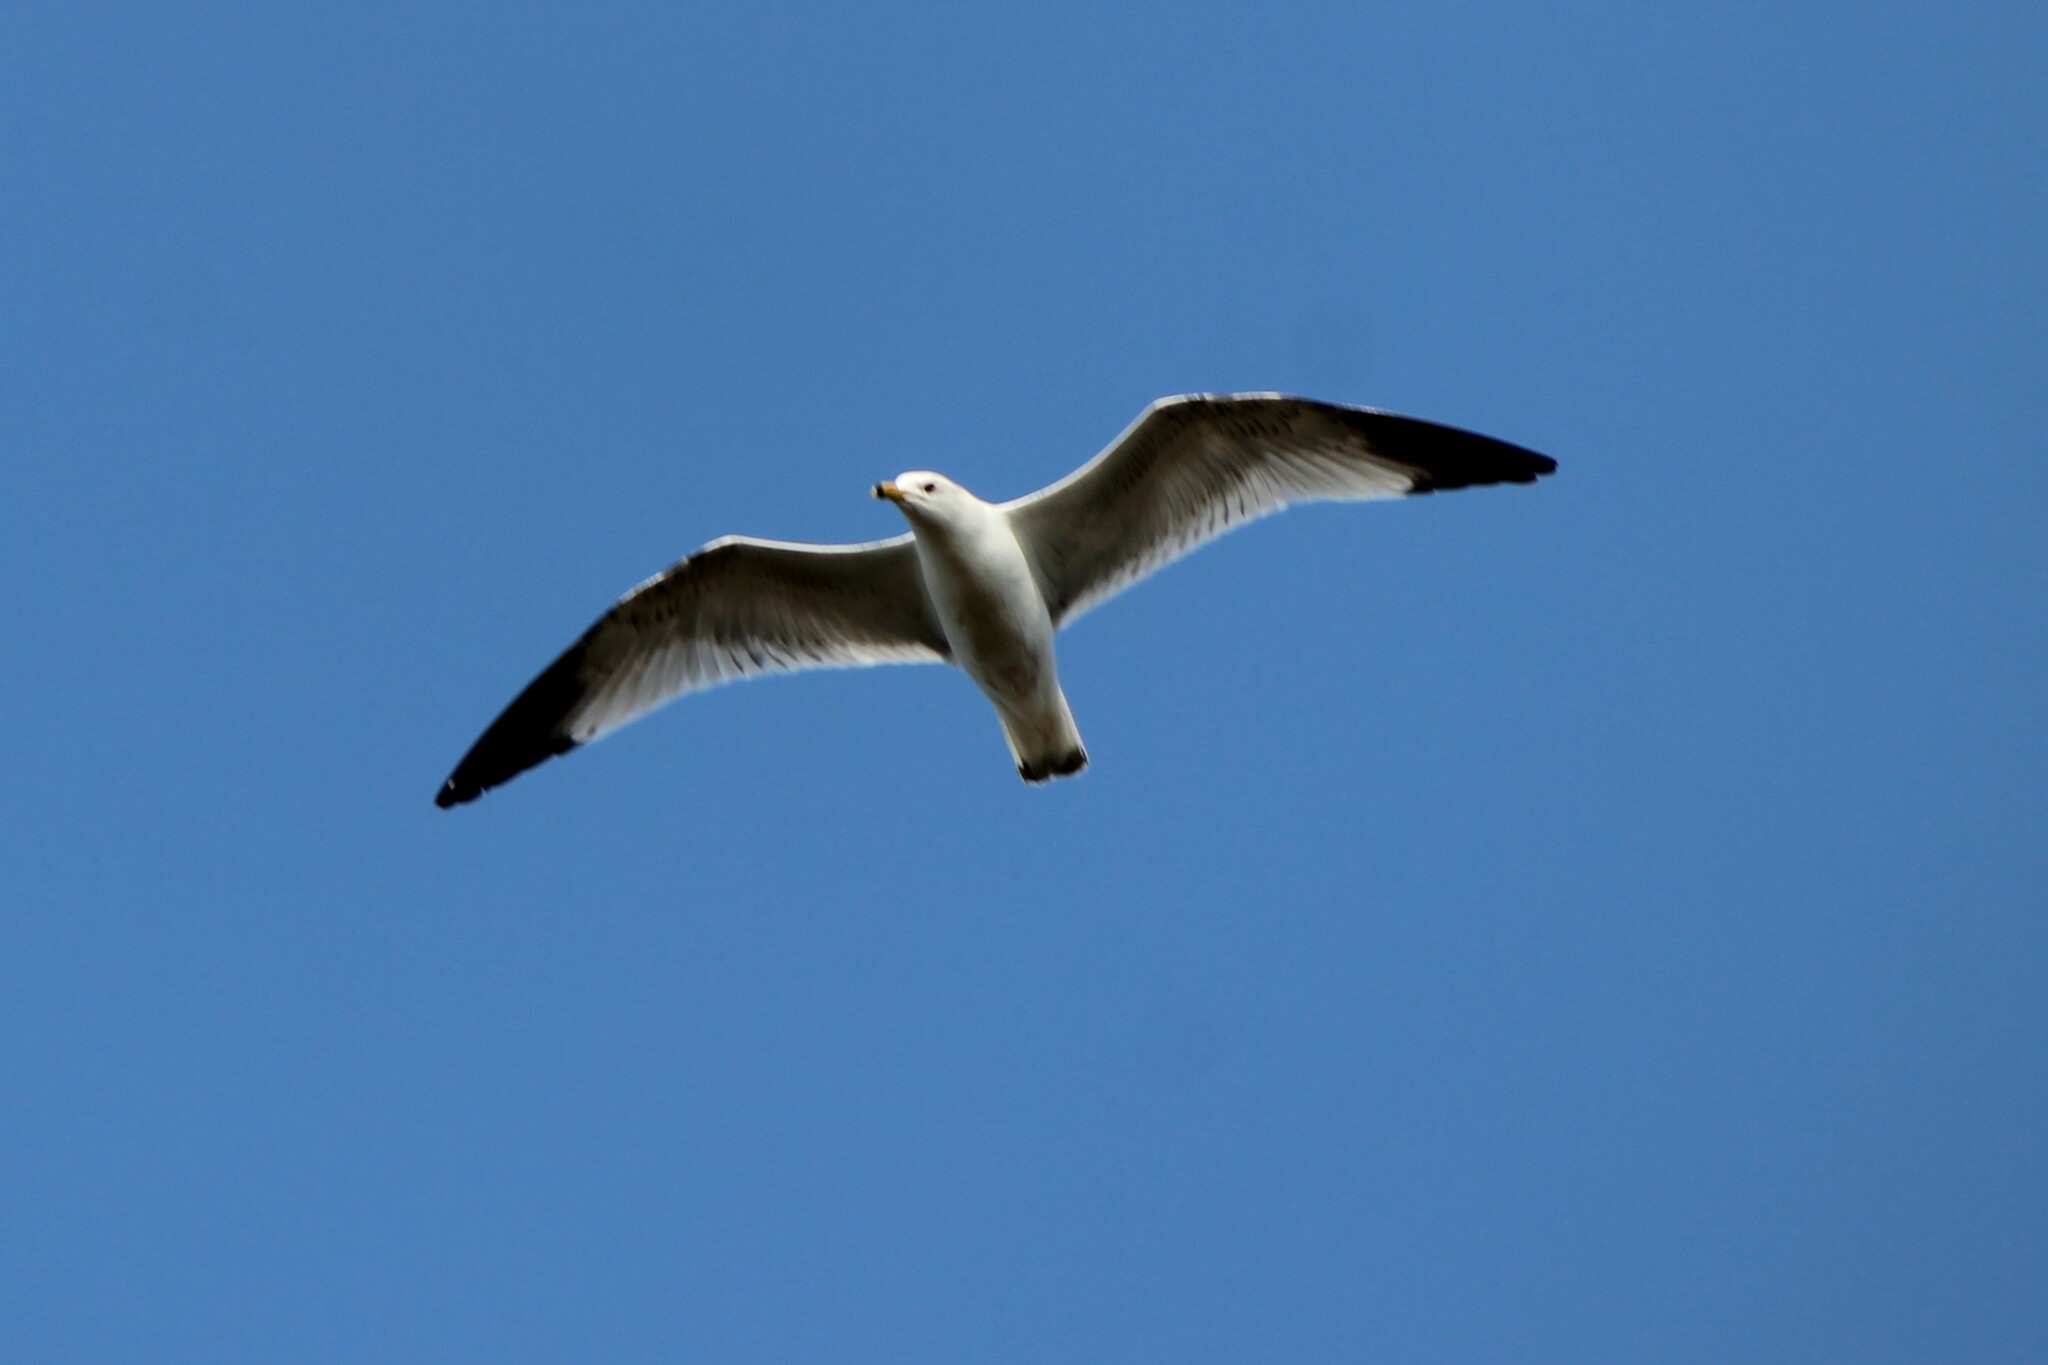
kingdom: Animalia
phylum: Chordata
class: Aves
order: Charadriiformes
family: Laridae
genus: Larus
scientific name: Larus delawarensis
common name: Ring-billed gull
